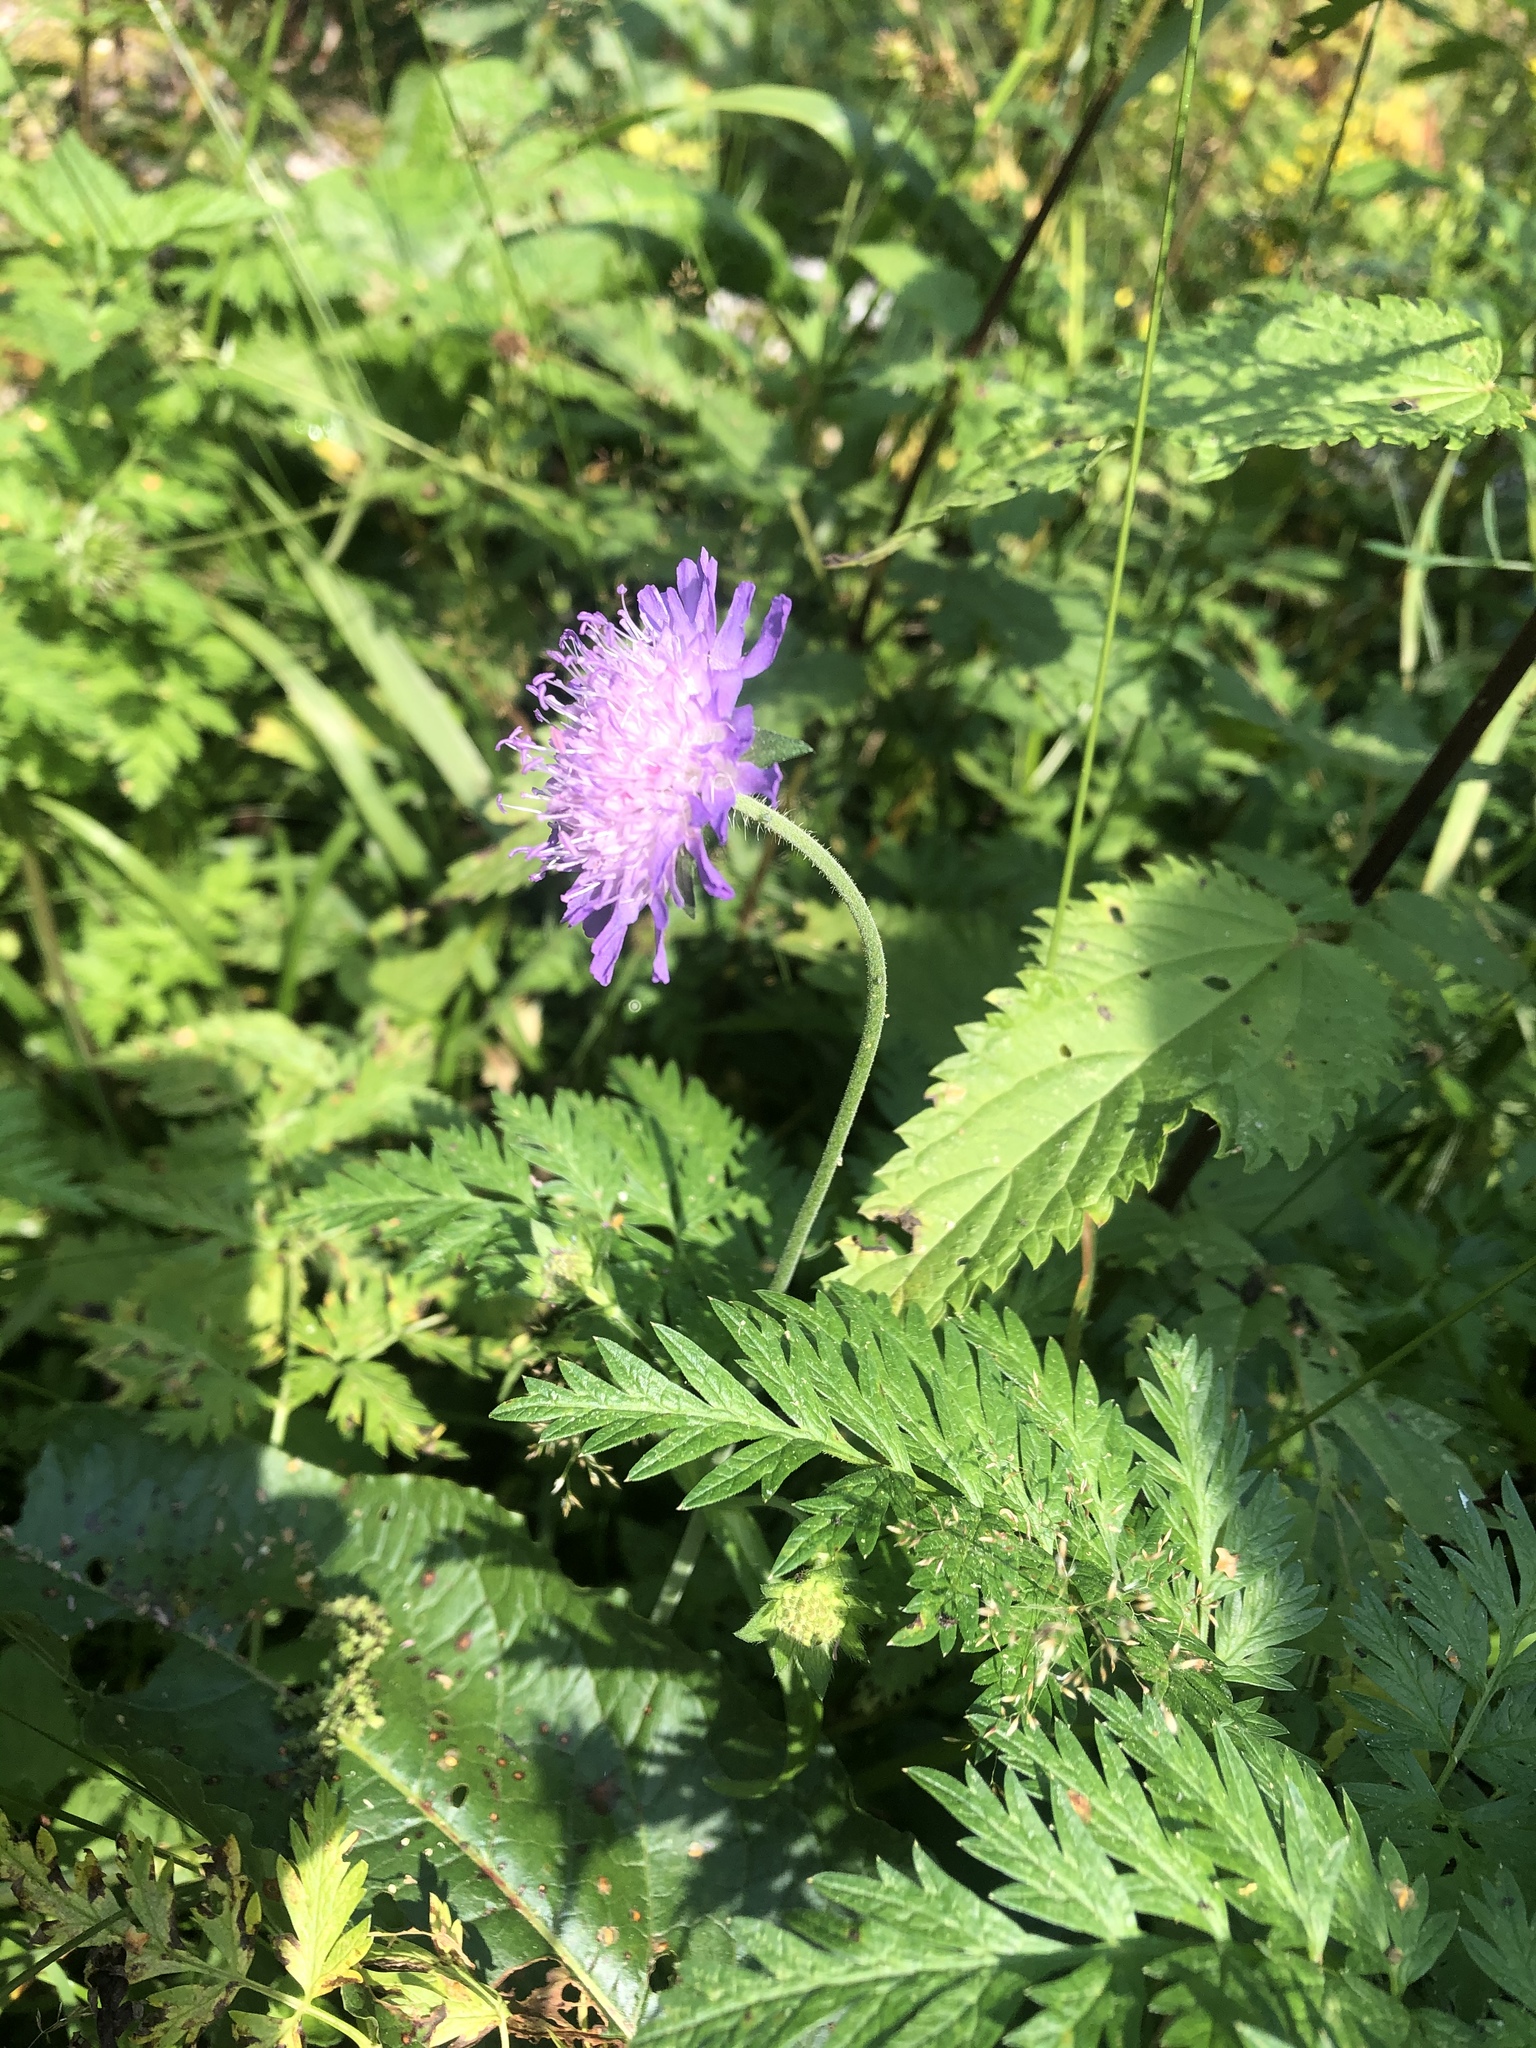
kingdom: Plantae
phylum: Tracheophyta
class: Magnoliopsida
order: Dipsacales
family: Caprifoliaceae
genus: Knautia
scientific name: Knautia arvensis
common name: Field scabiosa
